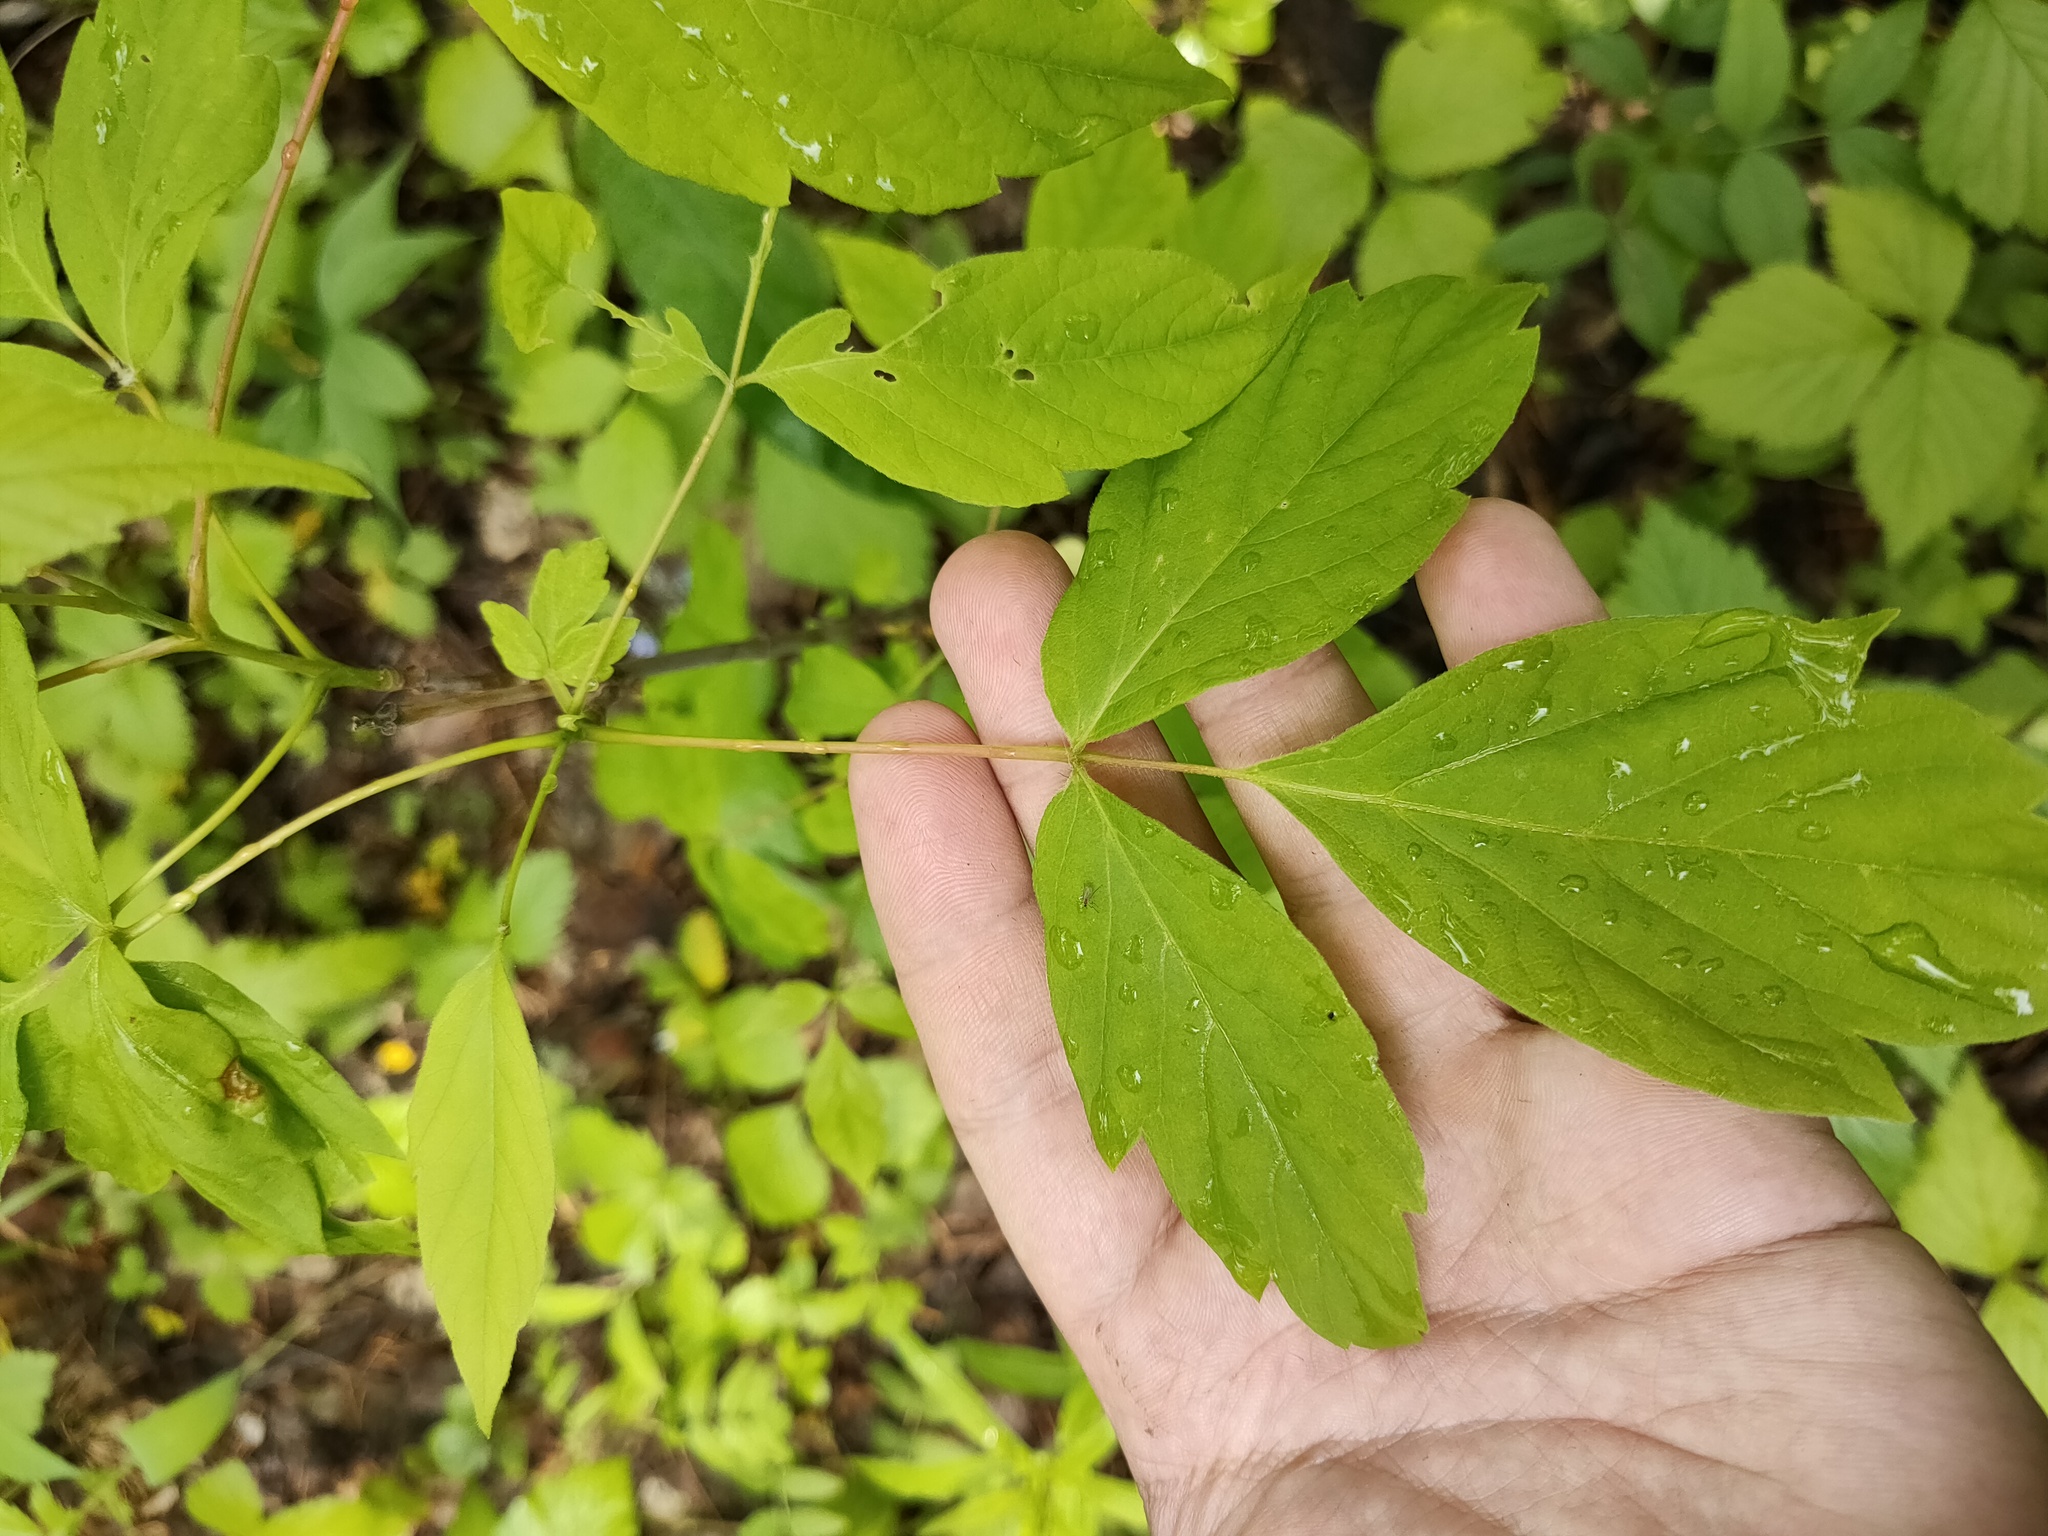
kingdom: Plantae
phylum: Tracheophyta
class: Magnoliopsida
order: Sapindales
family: Sapindaceae
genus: Acer
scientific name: Acer negundo
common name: Ashleaf maple
